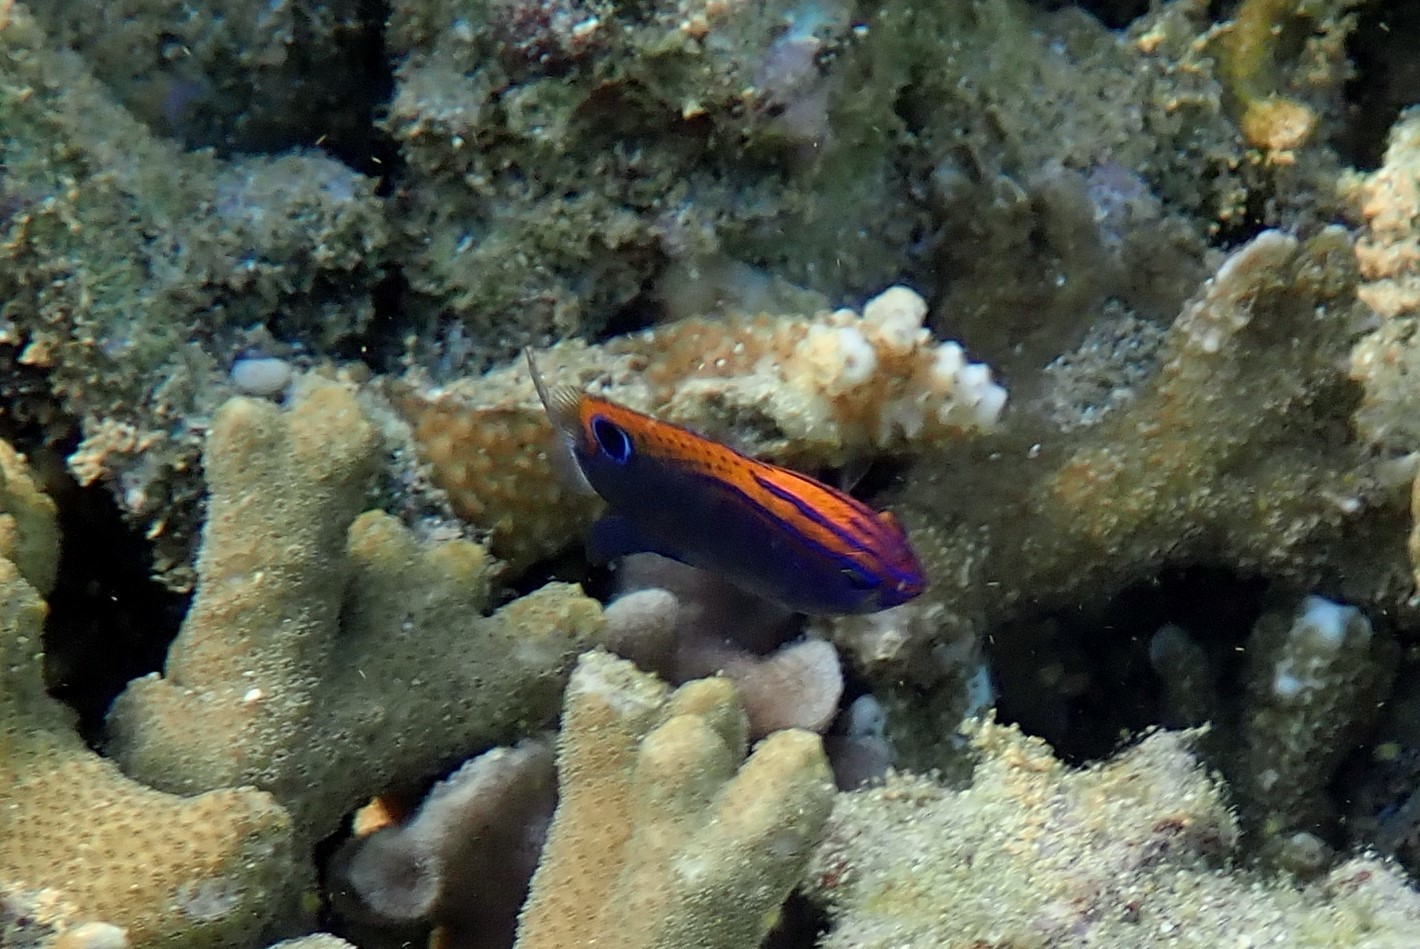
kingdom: Animalia
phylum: Chordata
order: Perciformes
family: Pomacentridae
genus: Pomacentrus
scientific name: Pomacentrus bankanensis
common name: Speckled damsel
